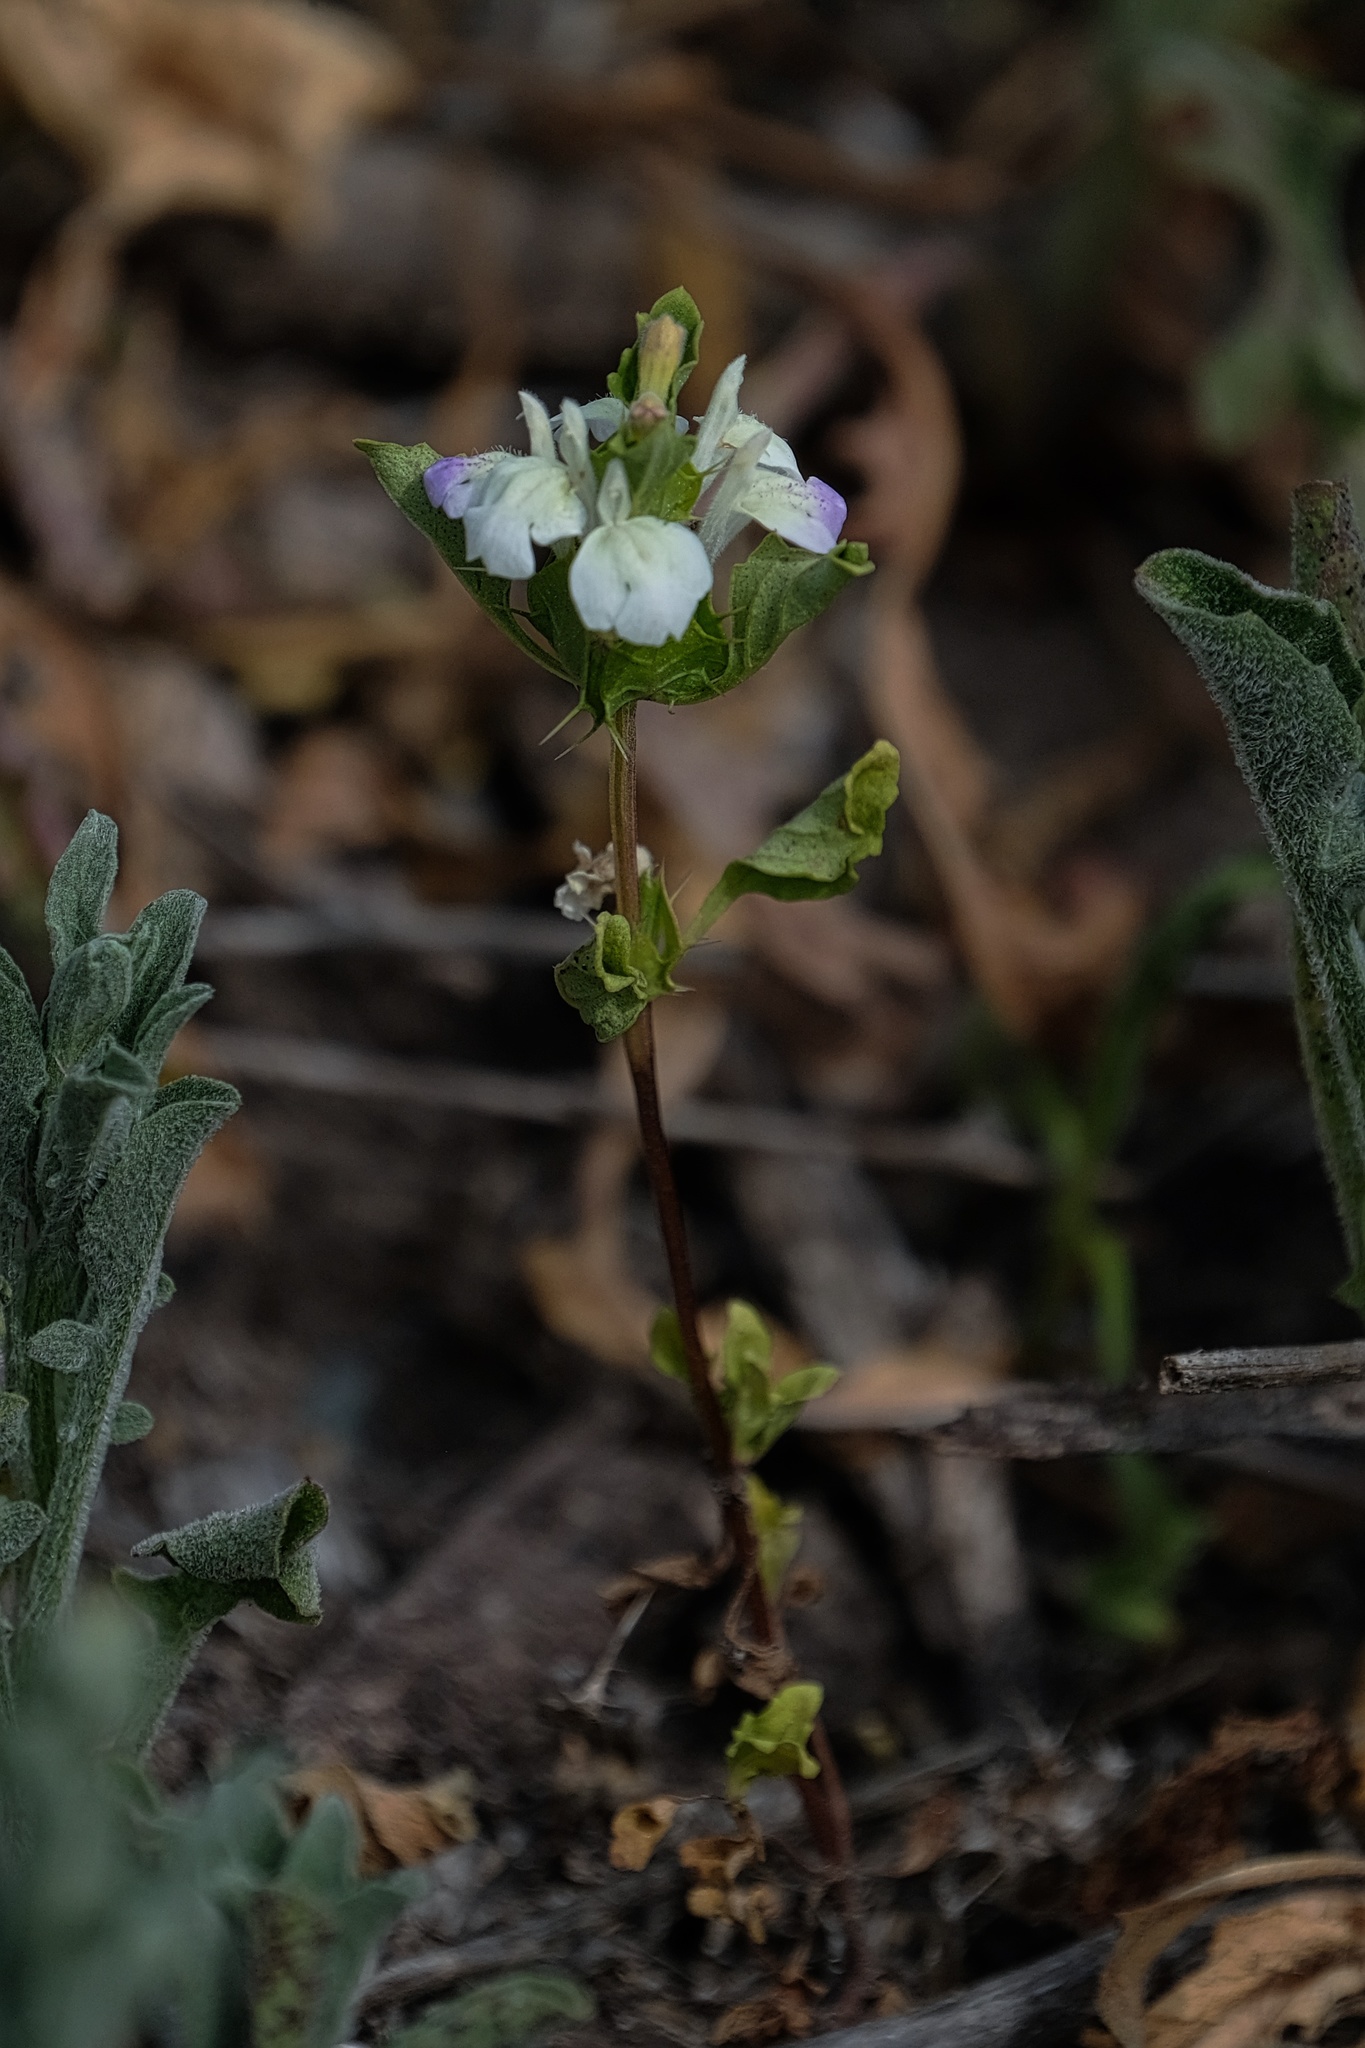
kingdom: Plantae
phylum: Tracheophyta
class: Magnoliopsida
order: Lamiales
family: Lamiaceae
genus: Acanthomintha
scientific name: Acanthomintha ilicifolia
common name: San diego thorn-mint
